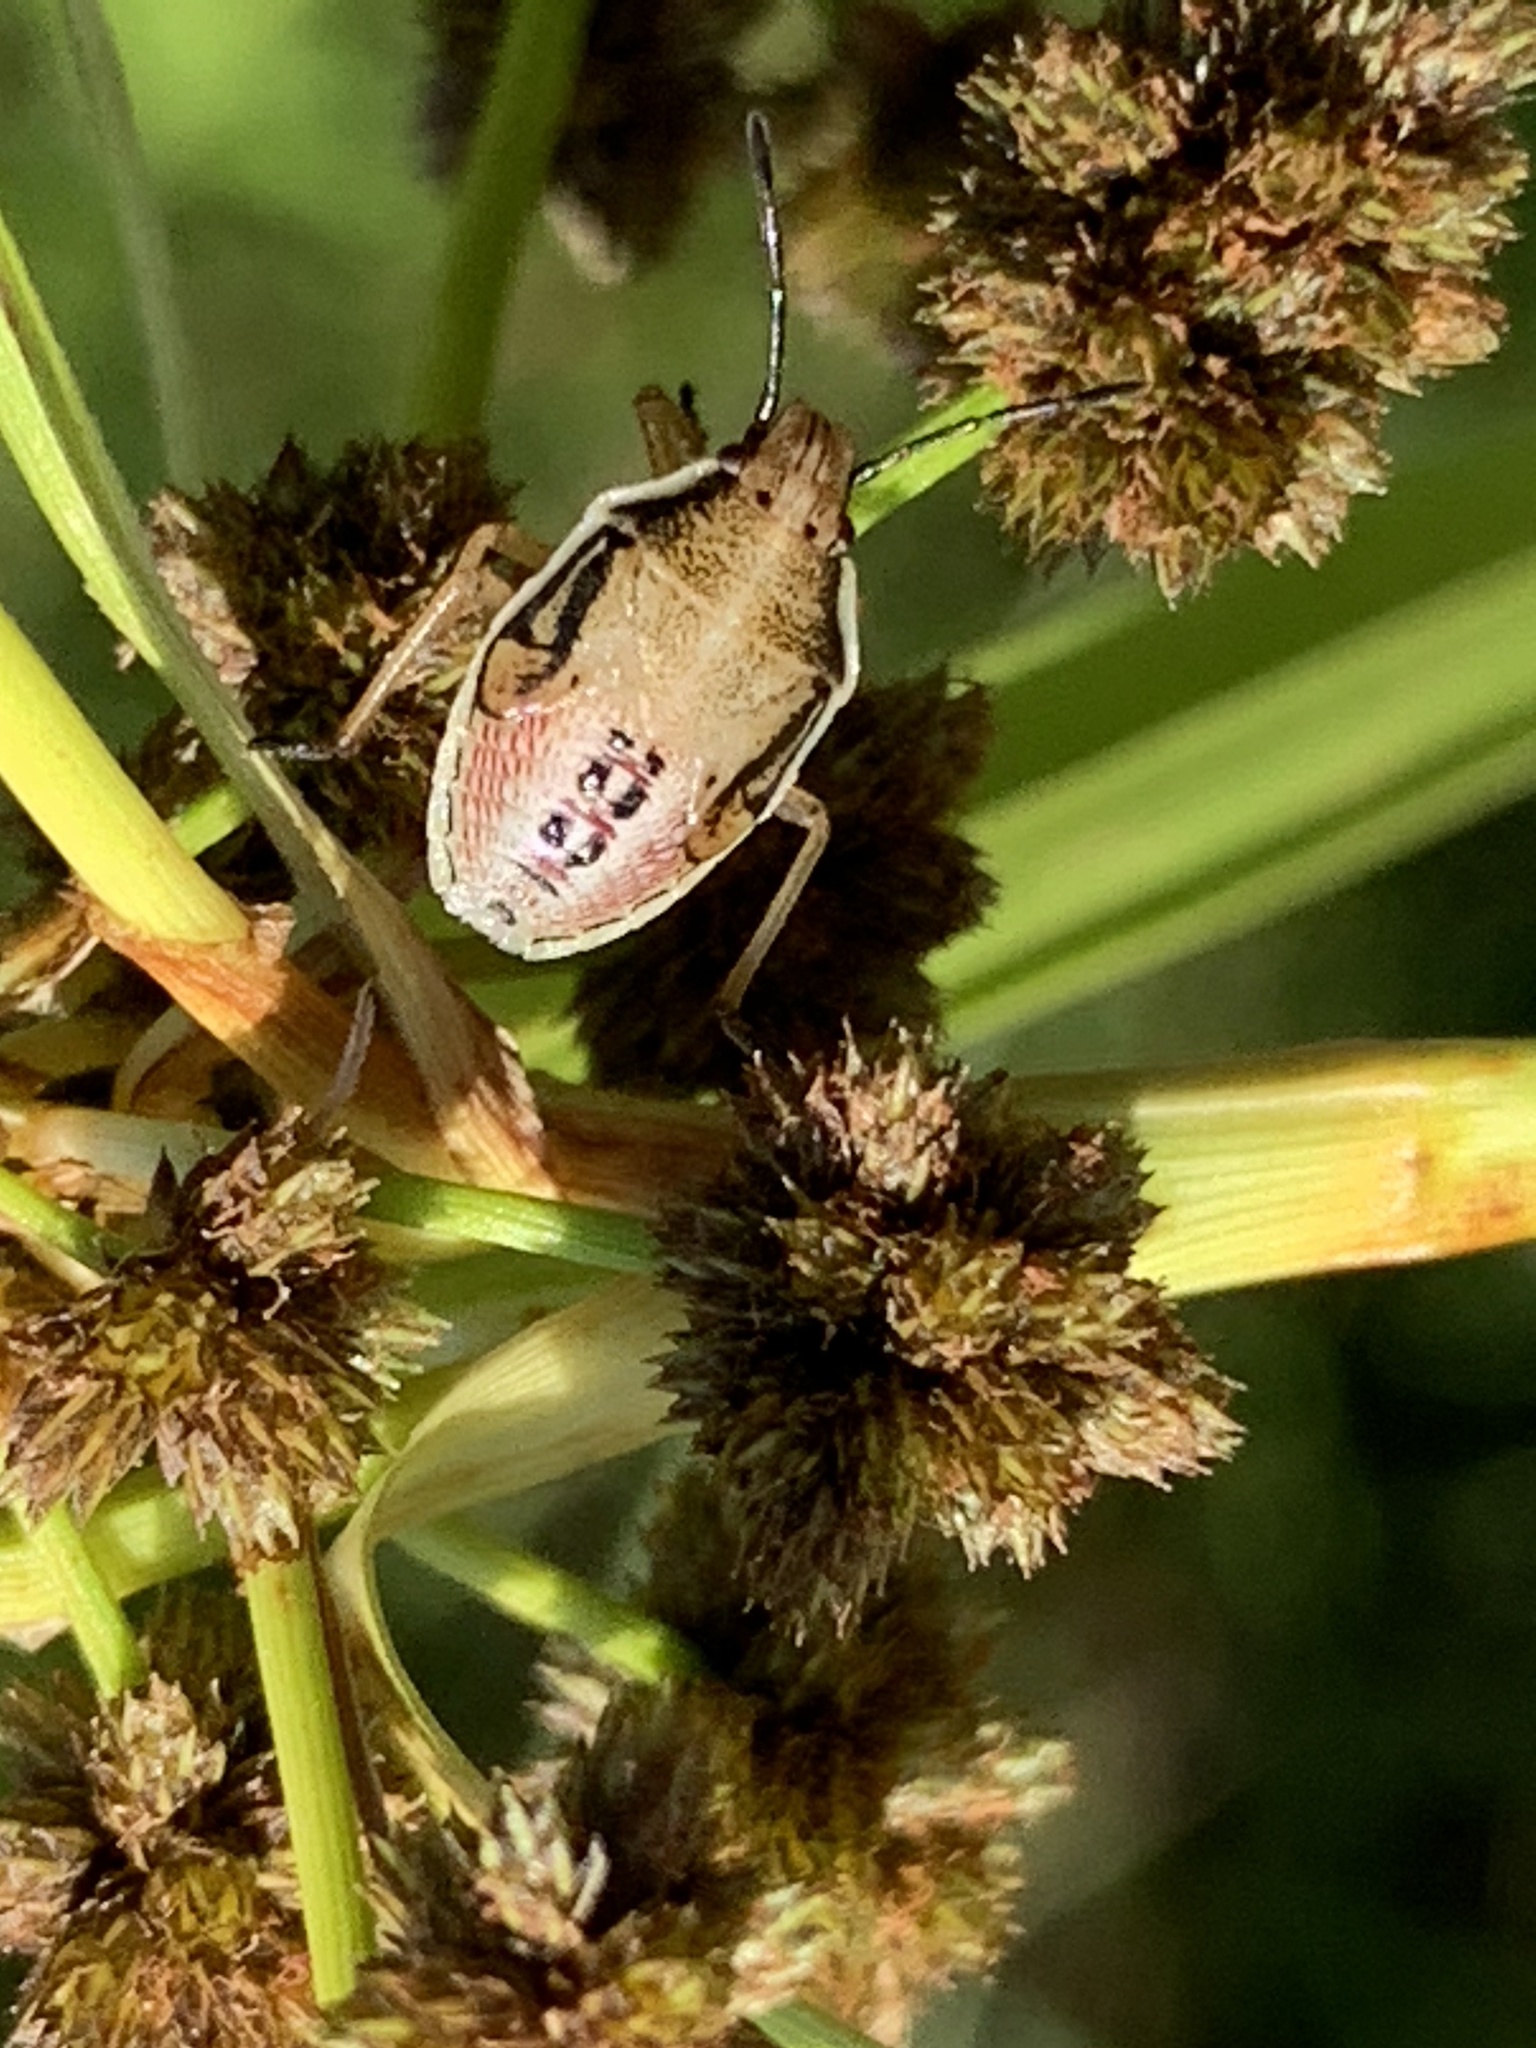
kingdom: Animalia
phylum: Arthropoda
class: Insecta
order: Hemiptera
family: Pentatomidae
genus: Oebalus
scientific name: Oebalus pugnax
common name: Rice stink bug
